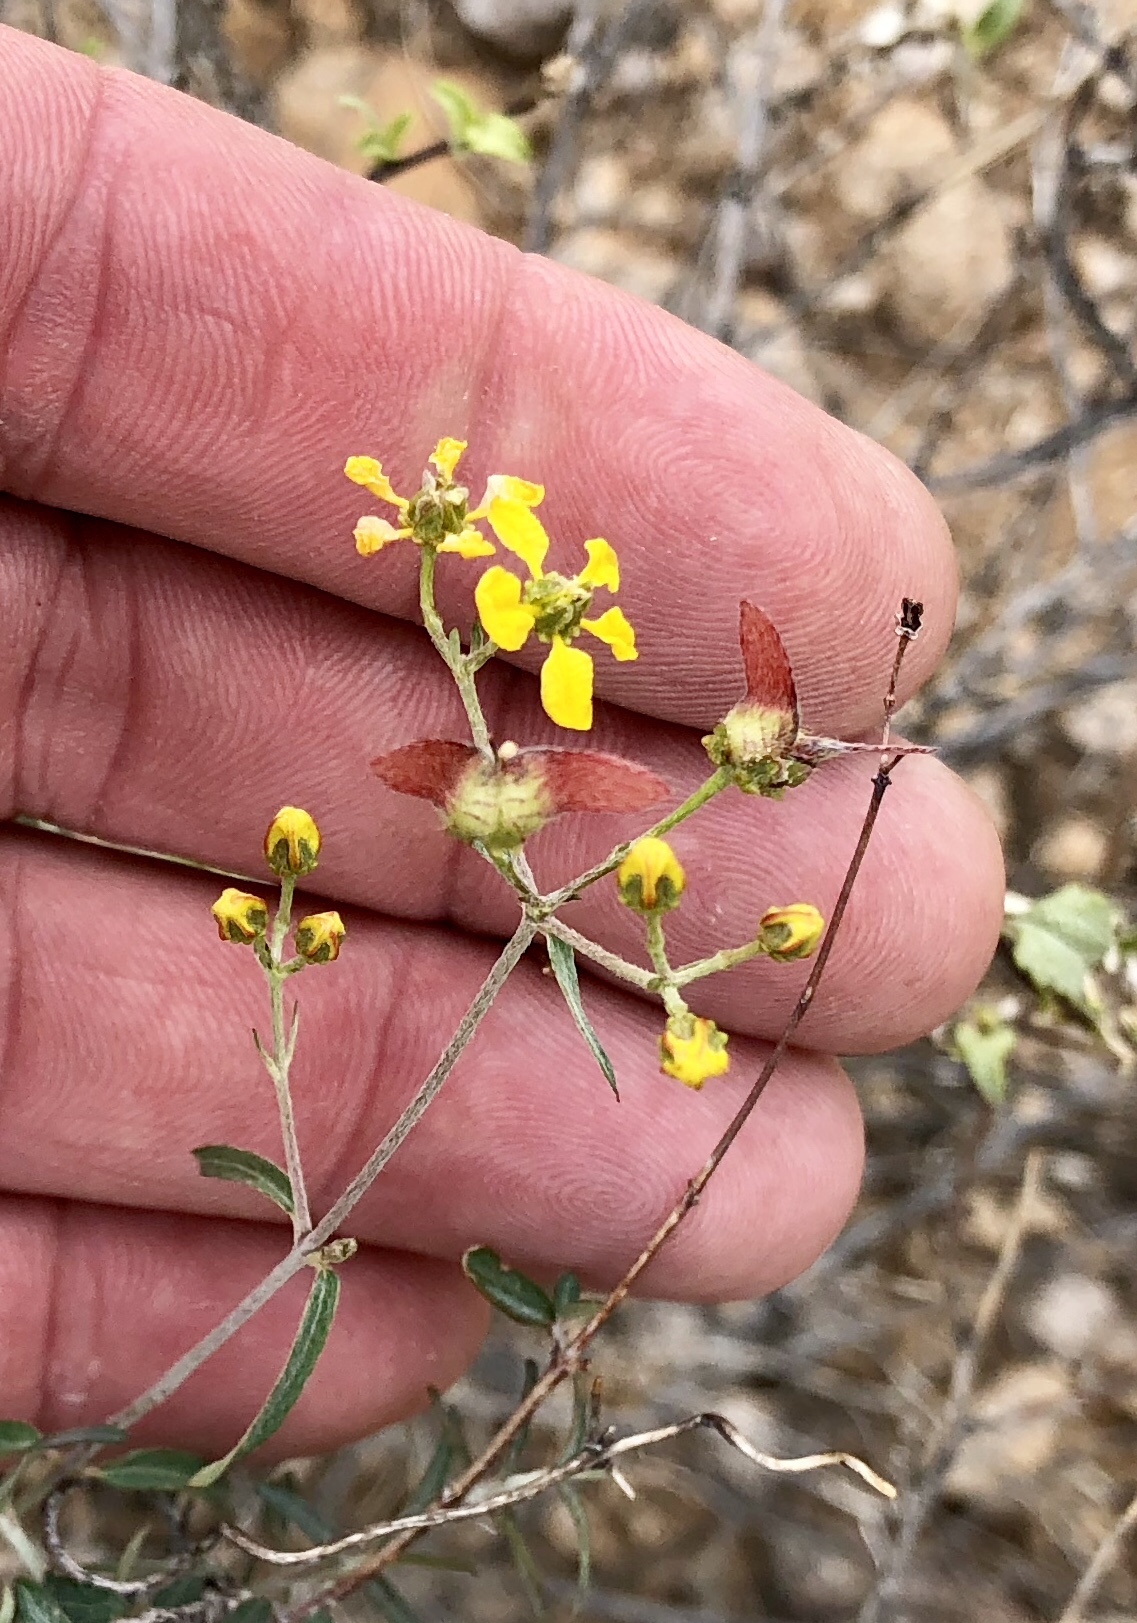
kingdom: Plantae
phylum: Tracheophyta
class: Magnoliopsida
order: Malpighiales
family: Malpighiaceae
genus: Cottsia
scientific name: Cottsia gracilis
